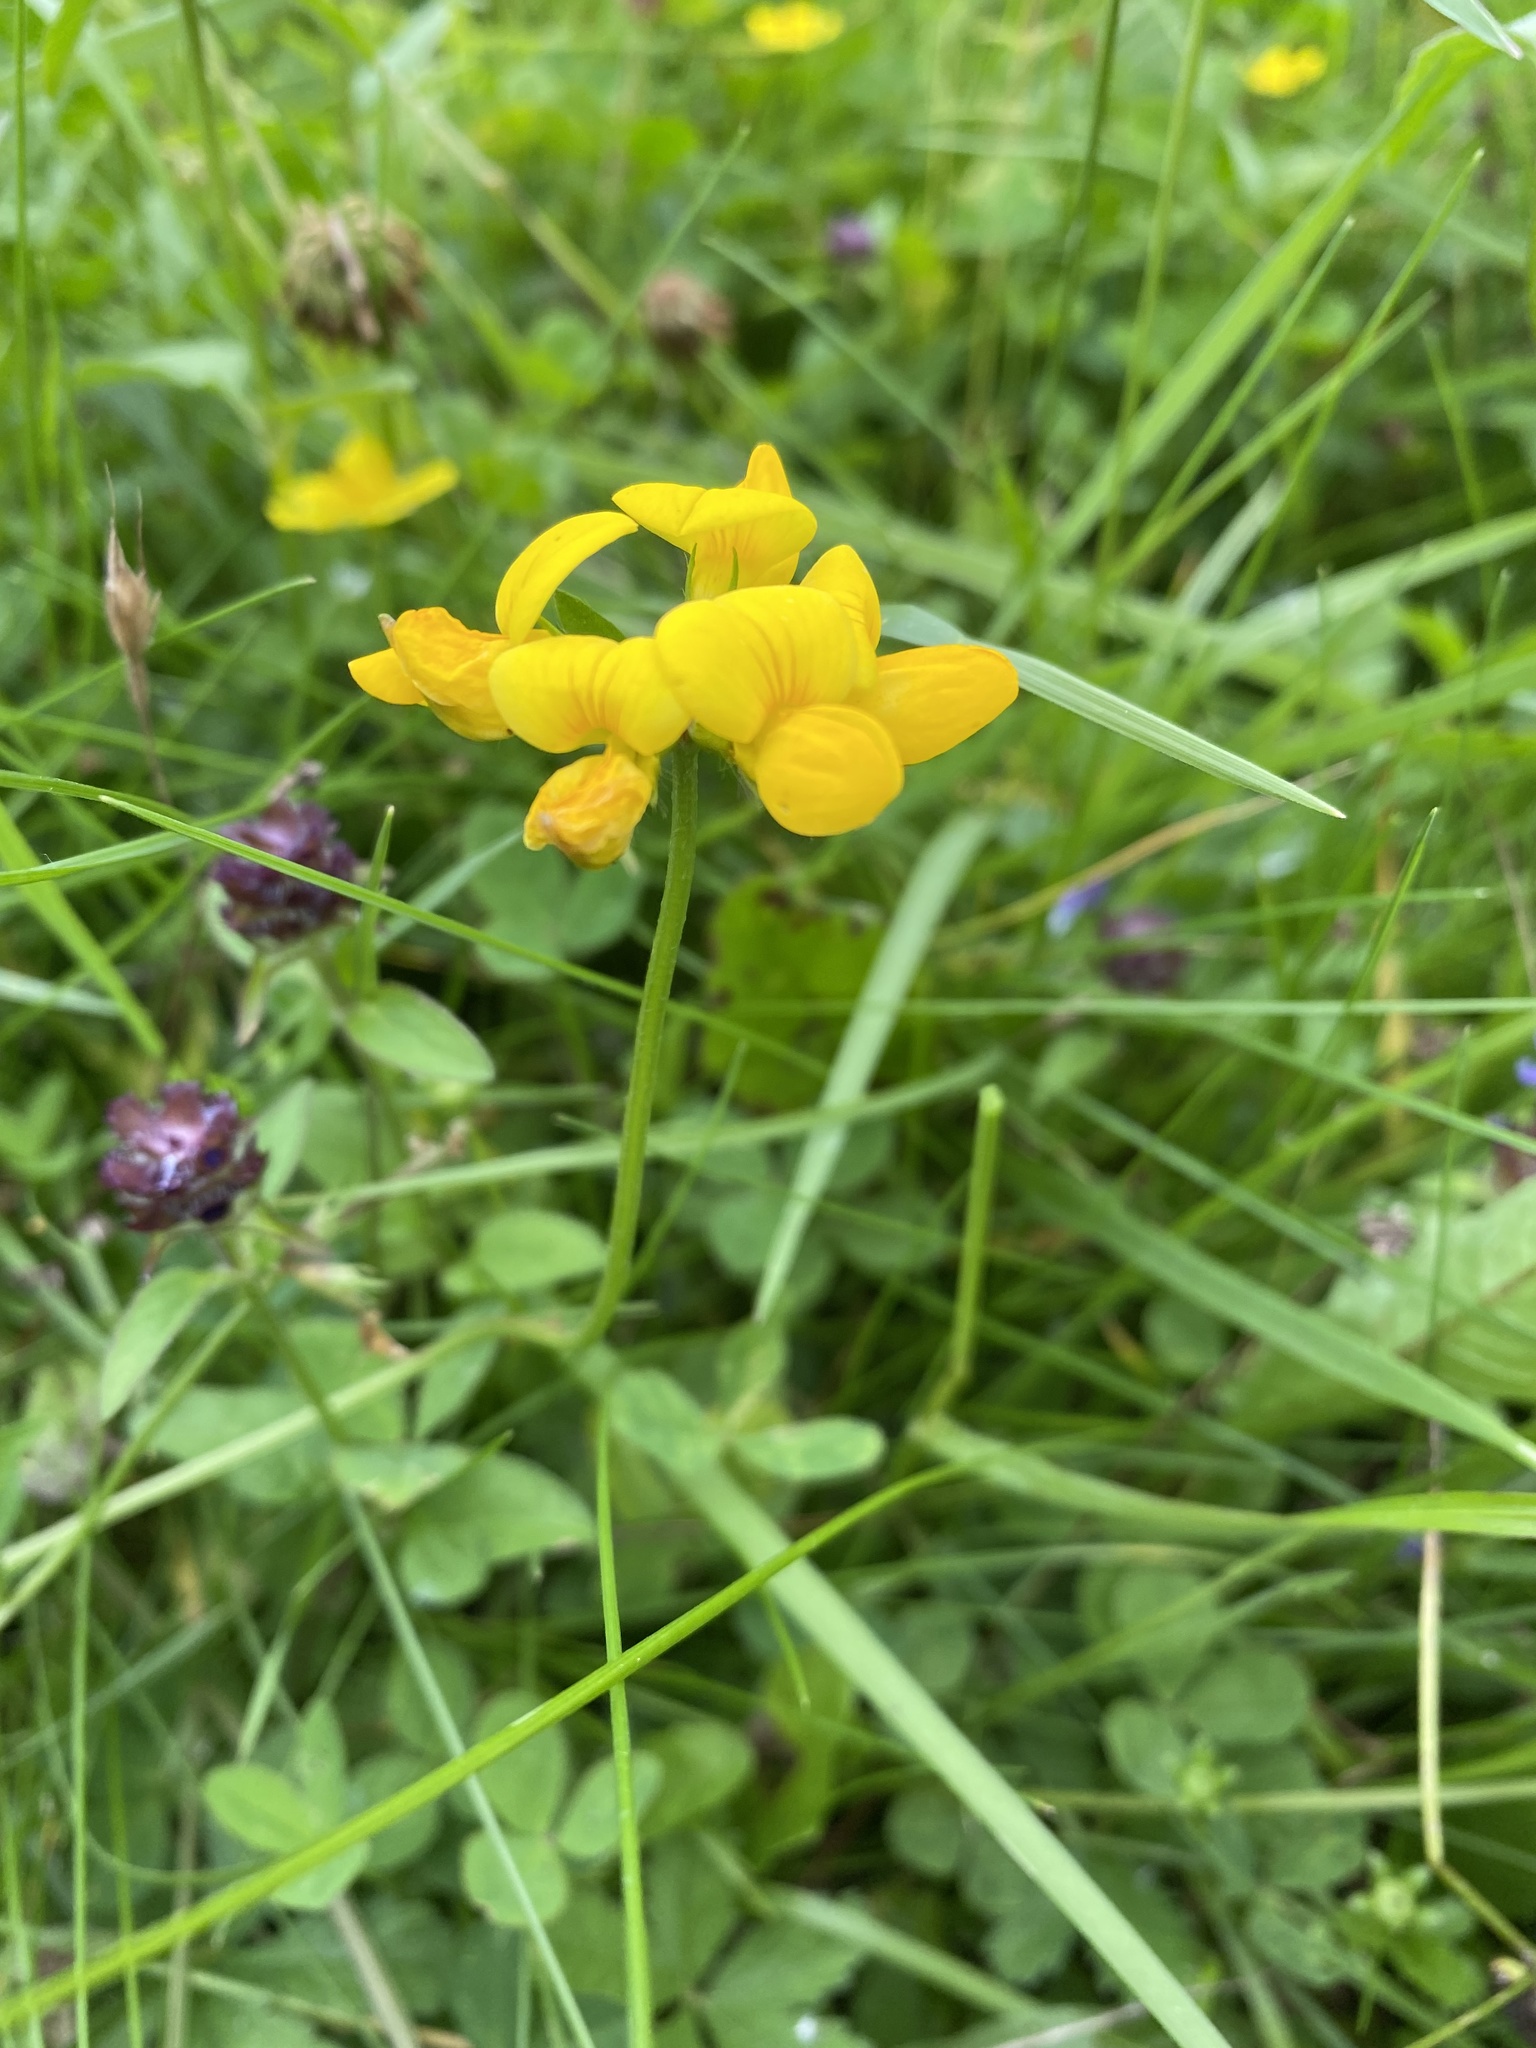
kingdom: Plantae
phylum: Tracheophyta
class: Magnoliopsida
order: Fabales
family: Fabaceae
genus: Lotus
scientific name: Lotus corniculatus
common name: Common bird's-foot-trefoil
